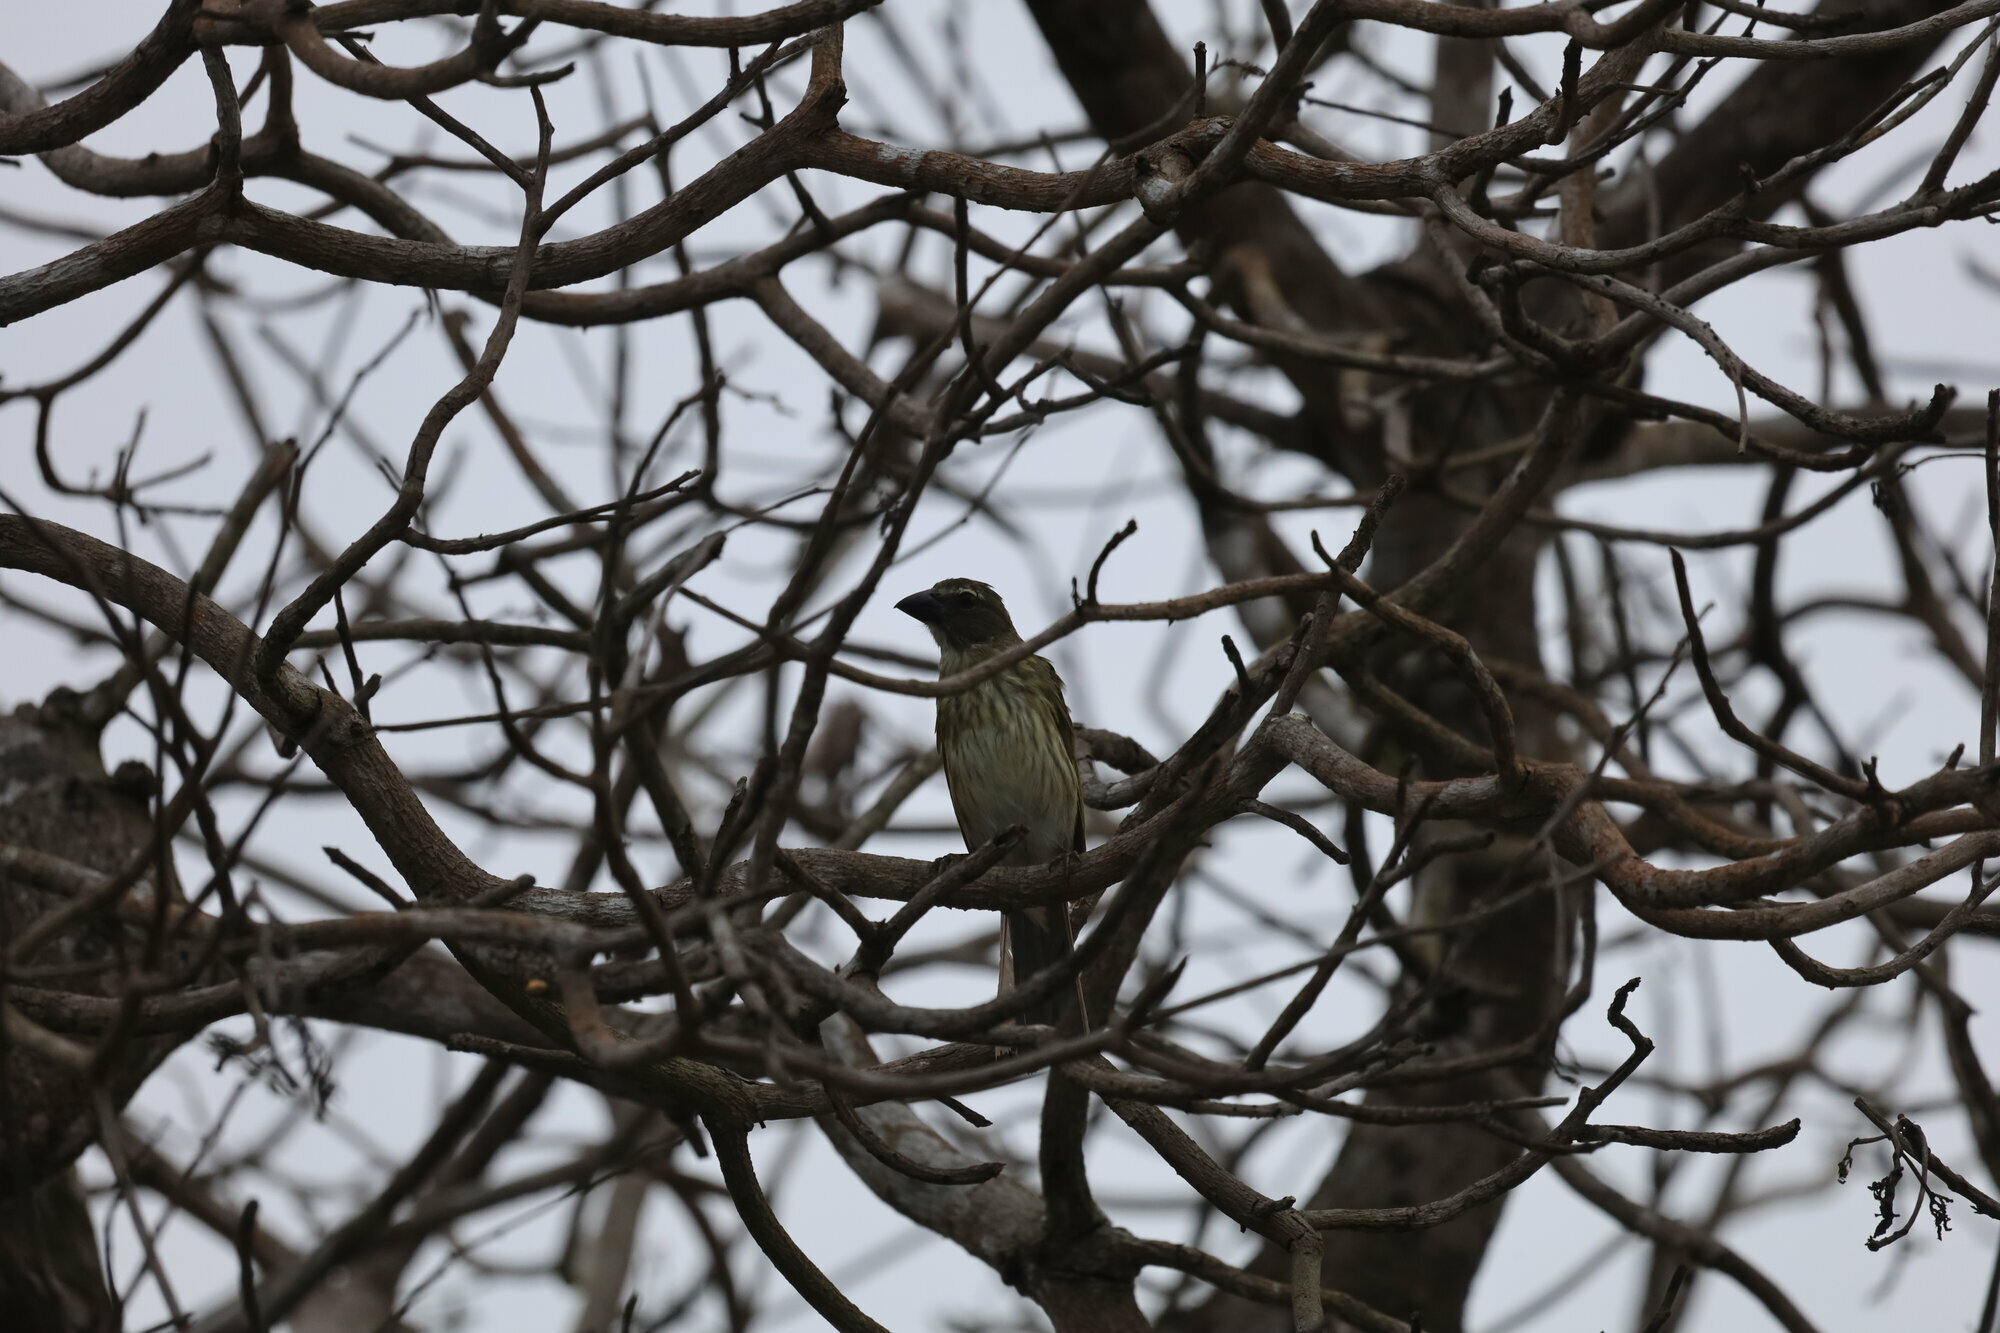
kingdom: Animalia
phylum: Chordata
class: Aves
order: Passeriformes
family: Thraupidae
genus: Saltator
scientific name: Saltator striatipectus
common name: Streaked saltator
